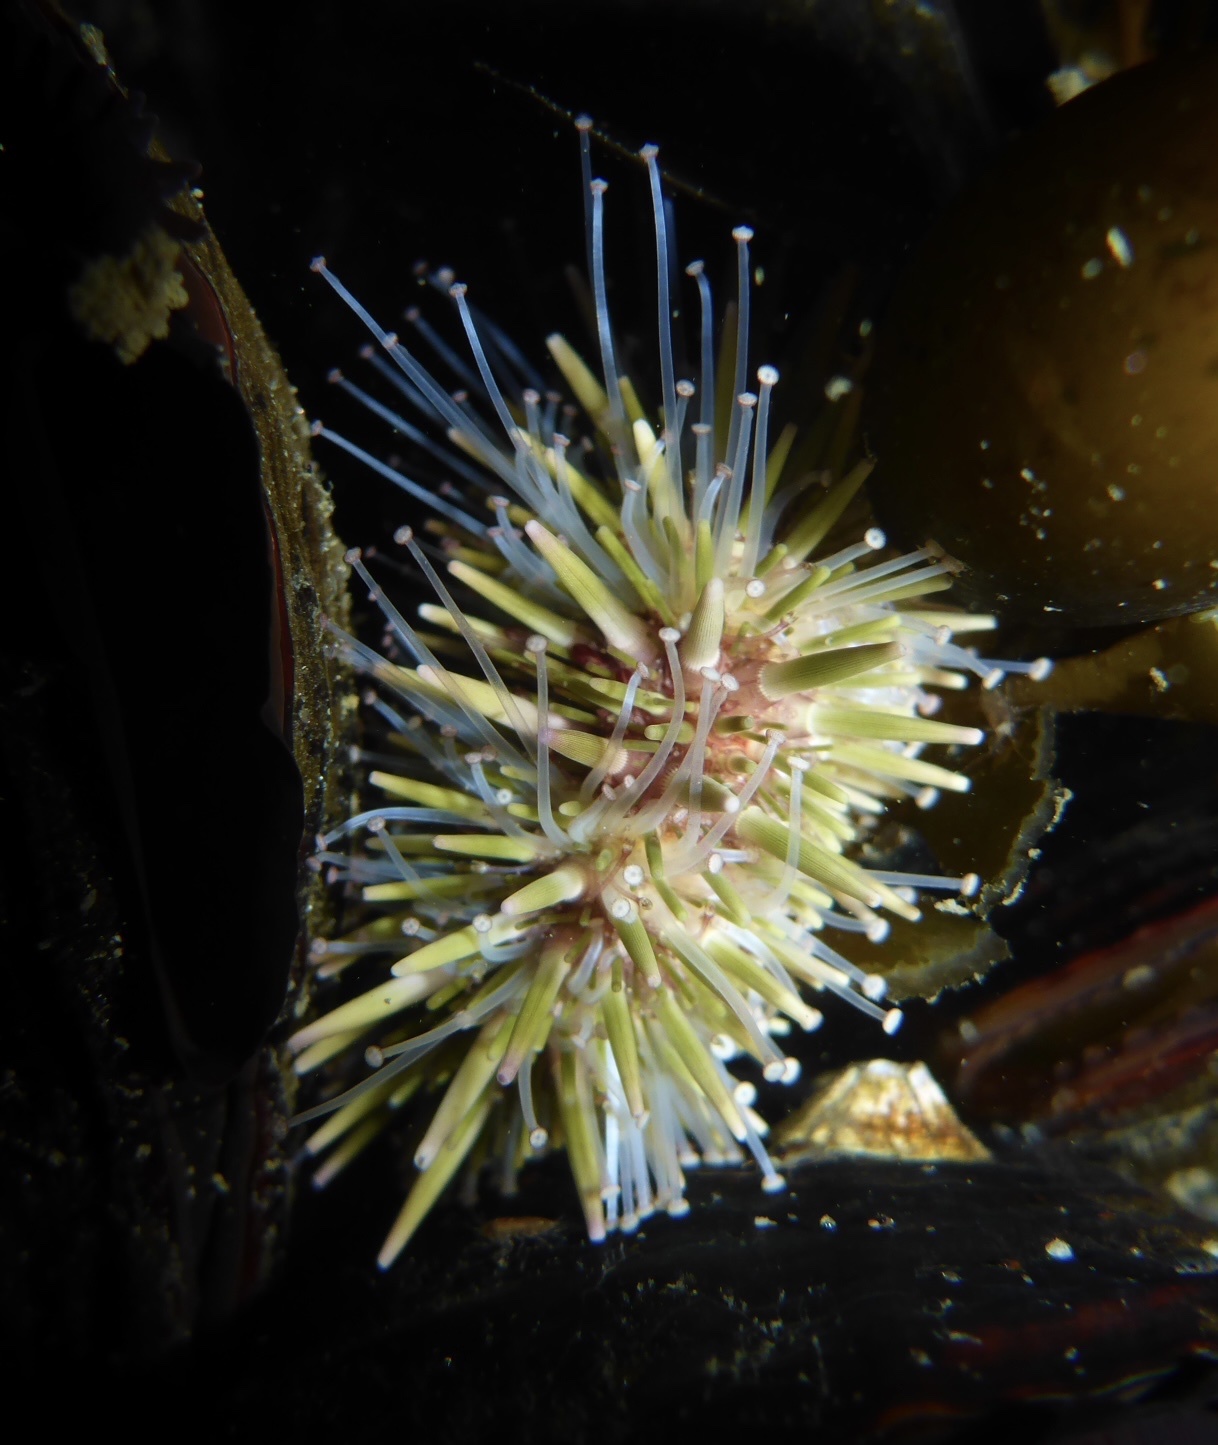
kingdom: Animalia
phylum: Echinodermata
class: Echinoidea
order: Camarodonta
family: Strongylocentrotidae
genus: Strongylocentrotus
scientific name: Strongylocentrotus purpuratus
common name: Purple sea urchin
